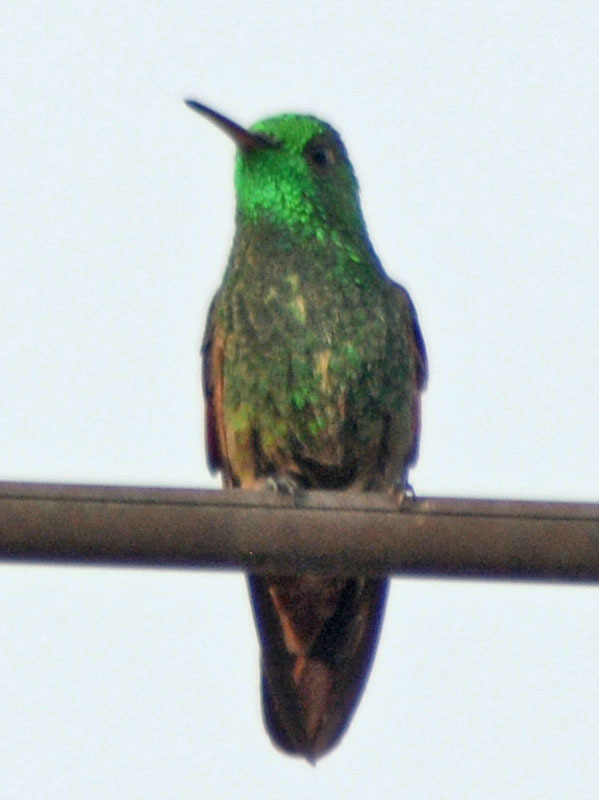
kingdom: Animalia
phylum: Chordata
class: Aves
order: Apodiformes
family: Trochilidae
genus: Saucerottia
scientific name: Saucerottia beryllina
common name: Berylline hummingbird
